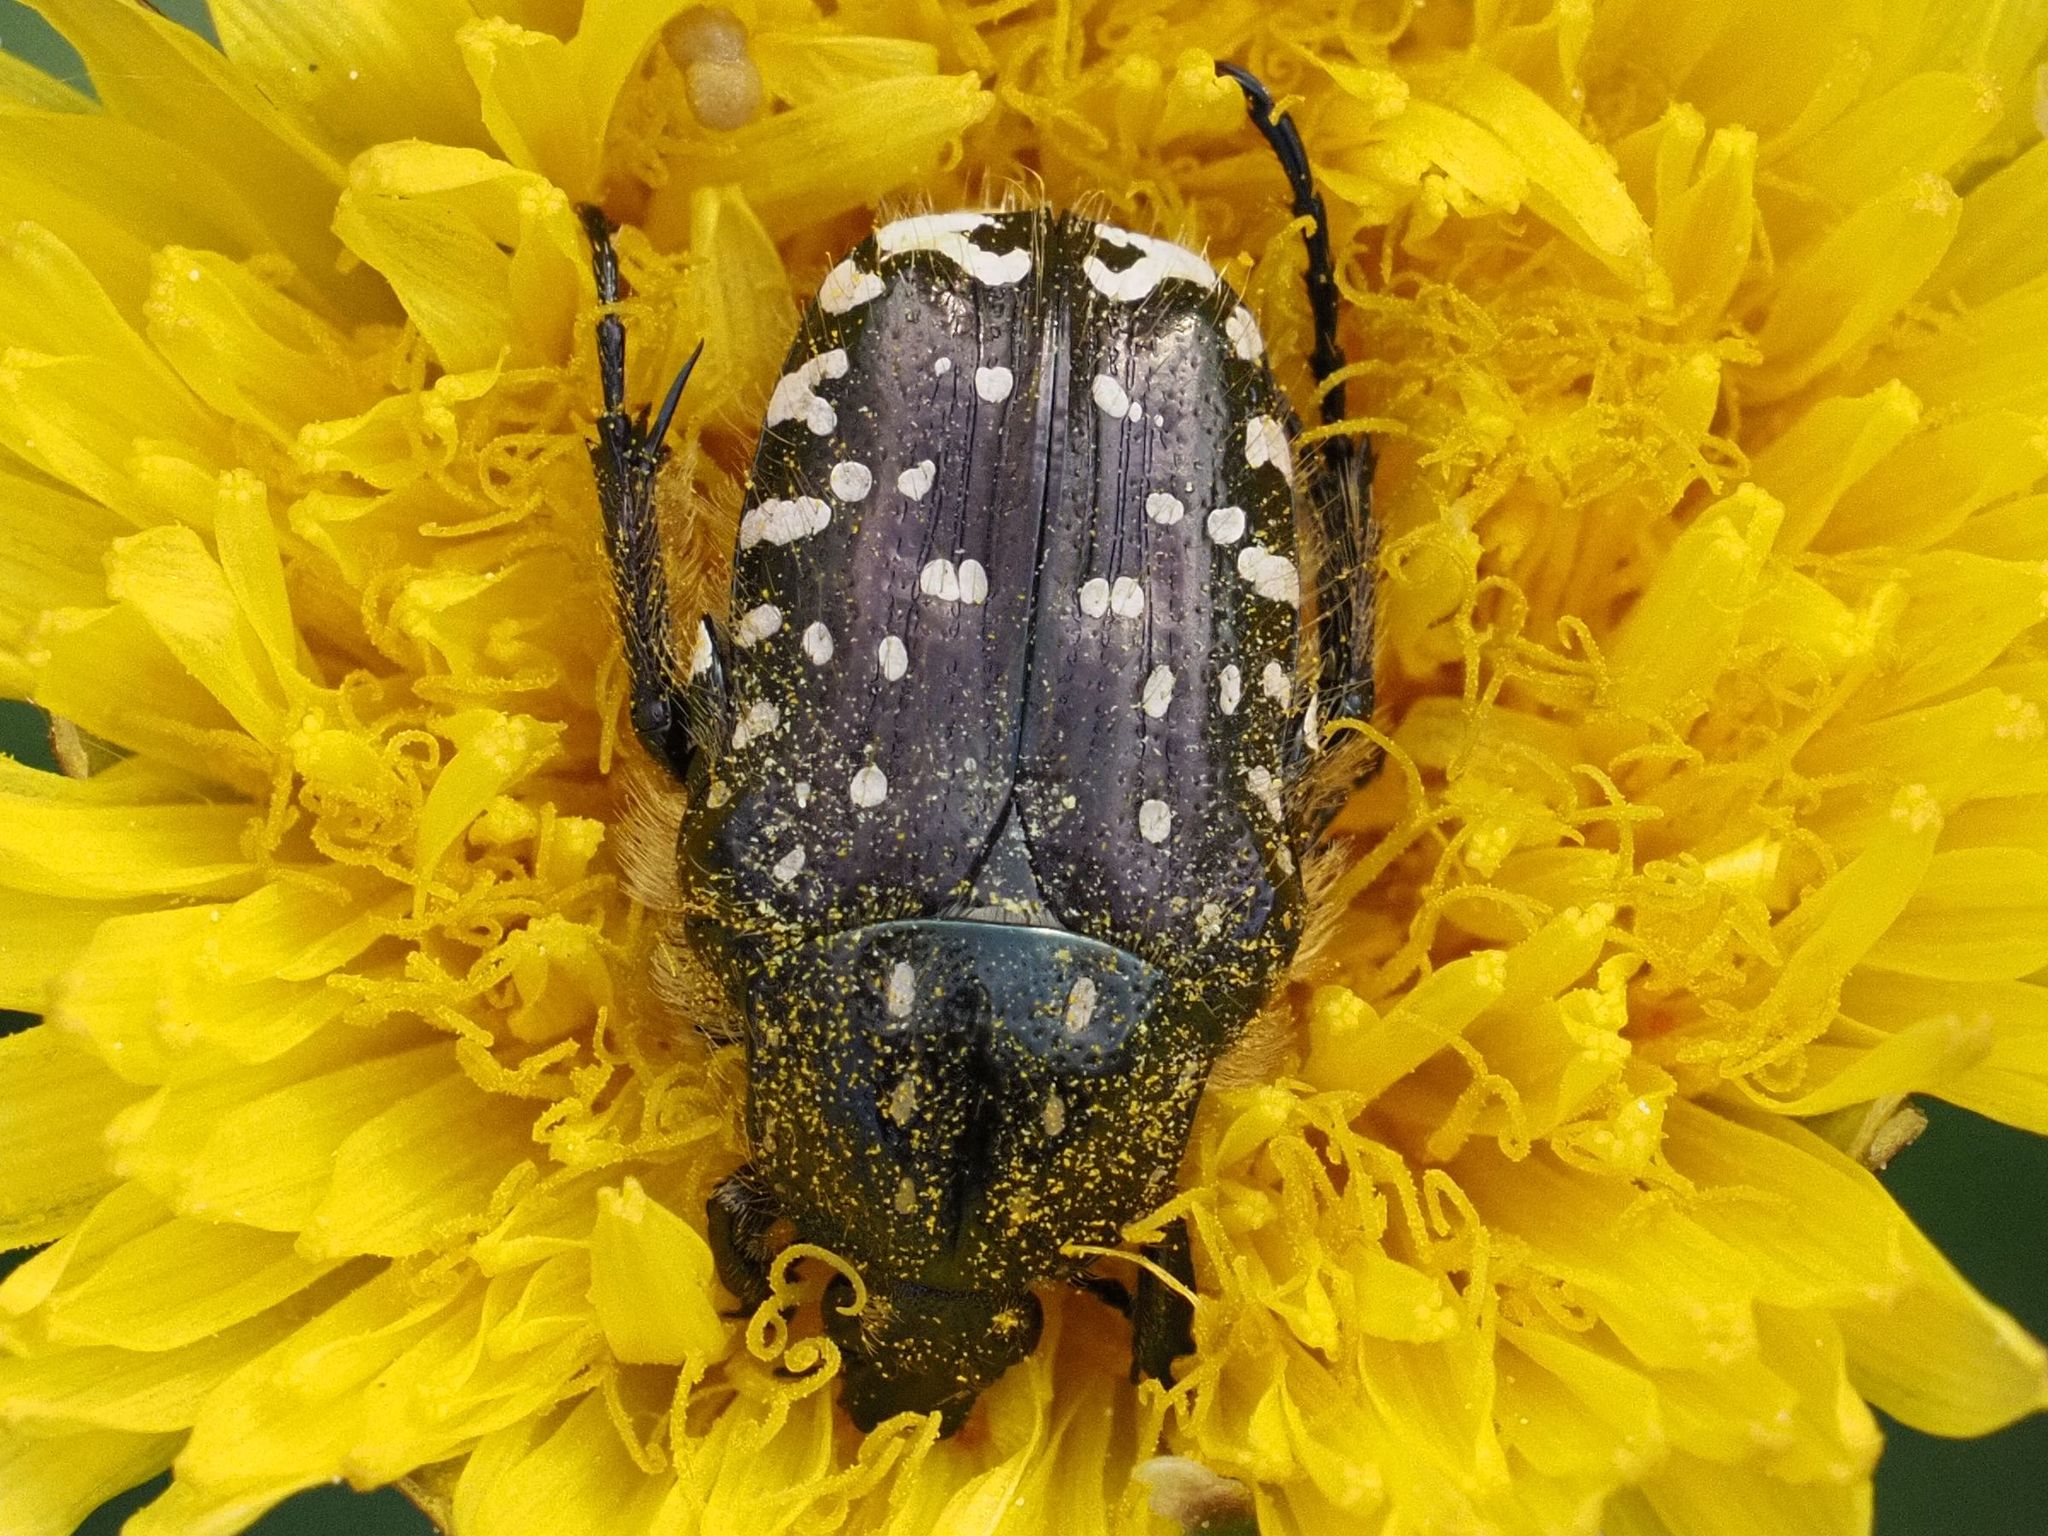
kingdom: Animalia
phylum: Arthropoda
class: Insecta
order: Coleoptera
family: Scarabaeidae
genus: Oxythyrea
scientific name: Oxythyrea funesta
